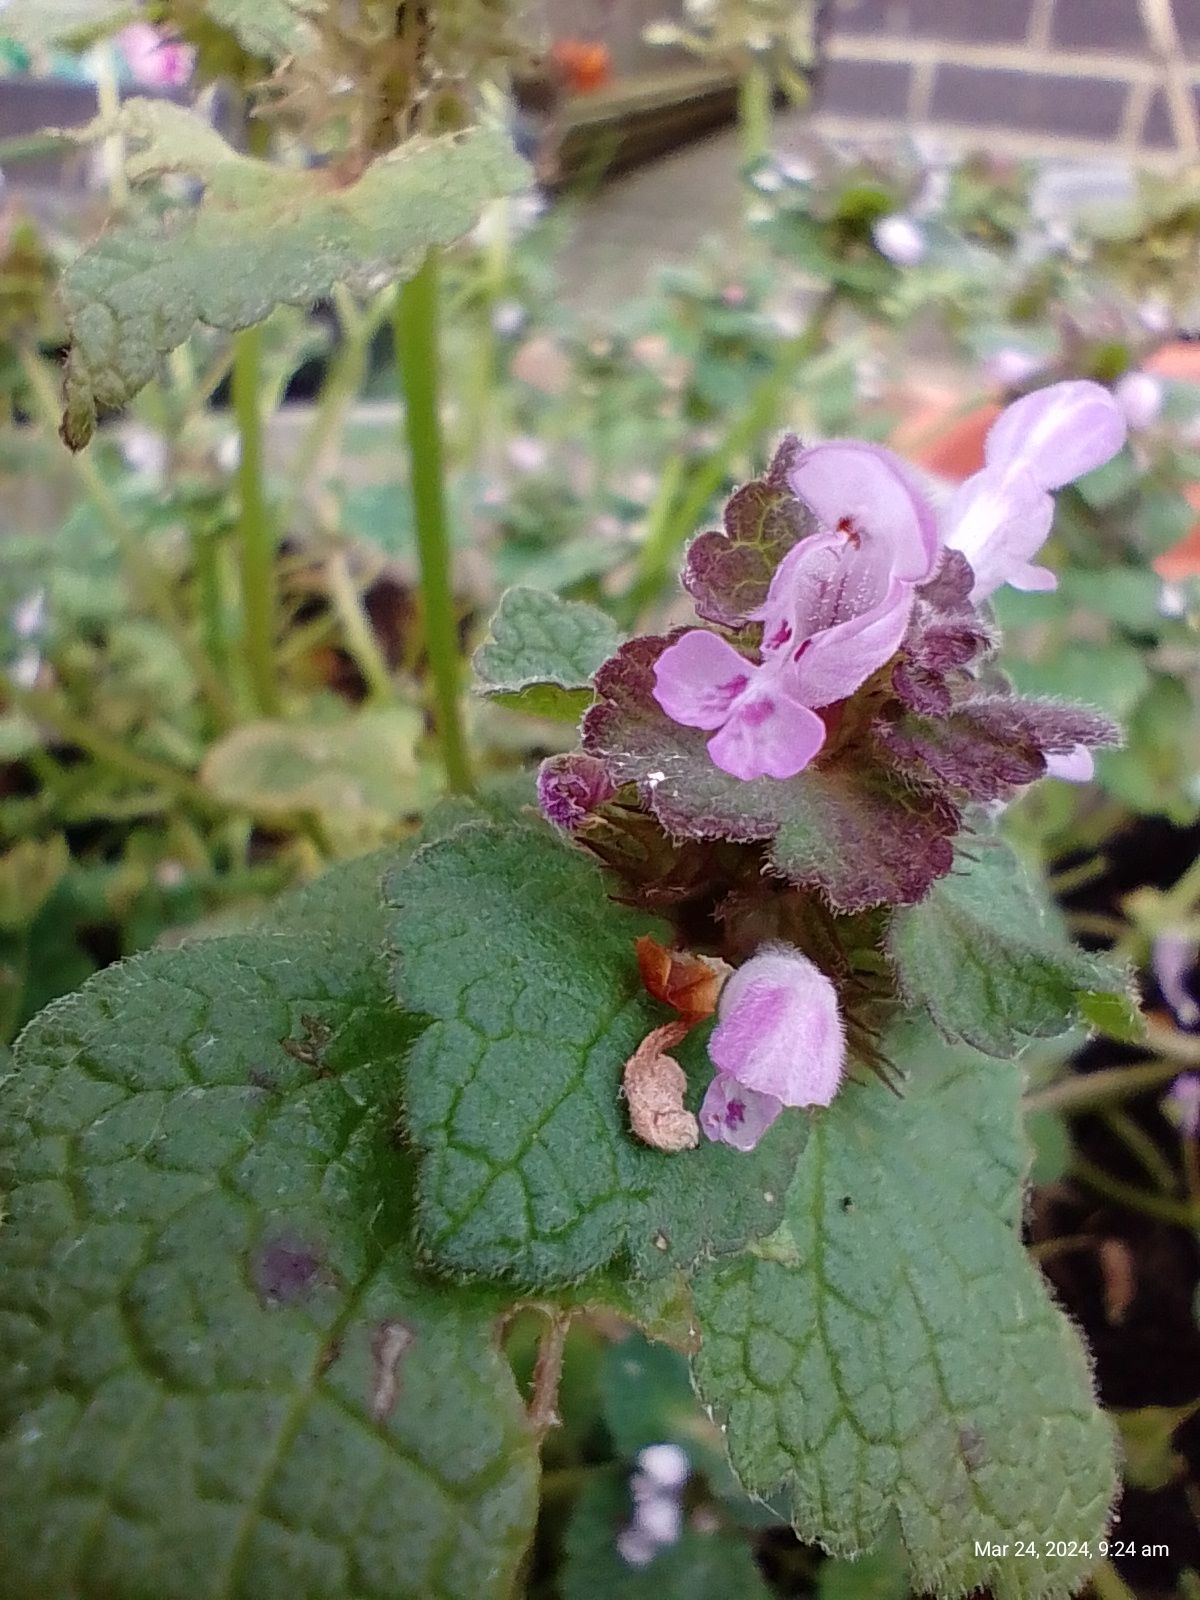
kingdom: Plantae
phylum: Tracheophyta
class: Magnoliopsida
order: Lamiales
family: Lamiaceae
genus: Lamium
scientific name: Lamium purpureum
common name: Red dead-nettle
